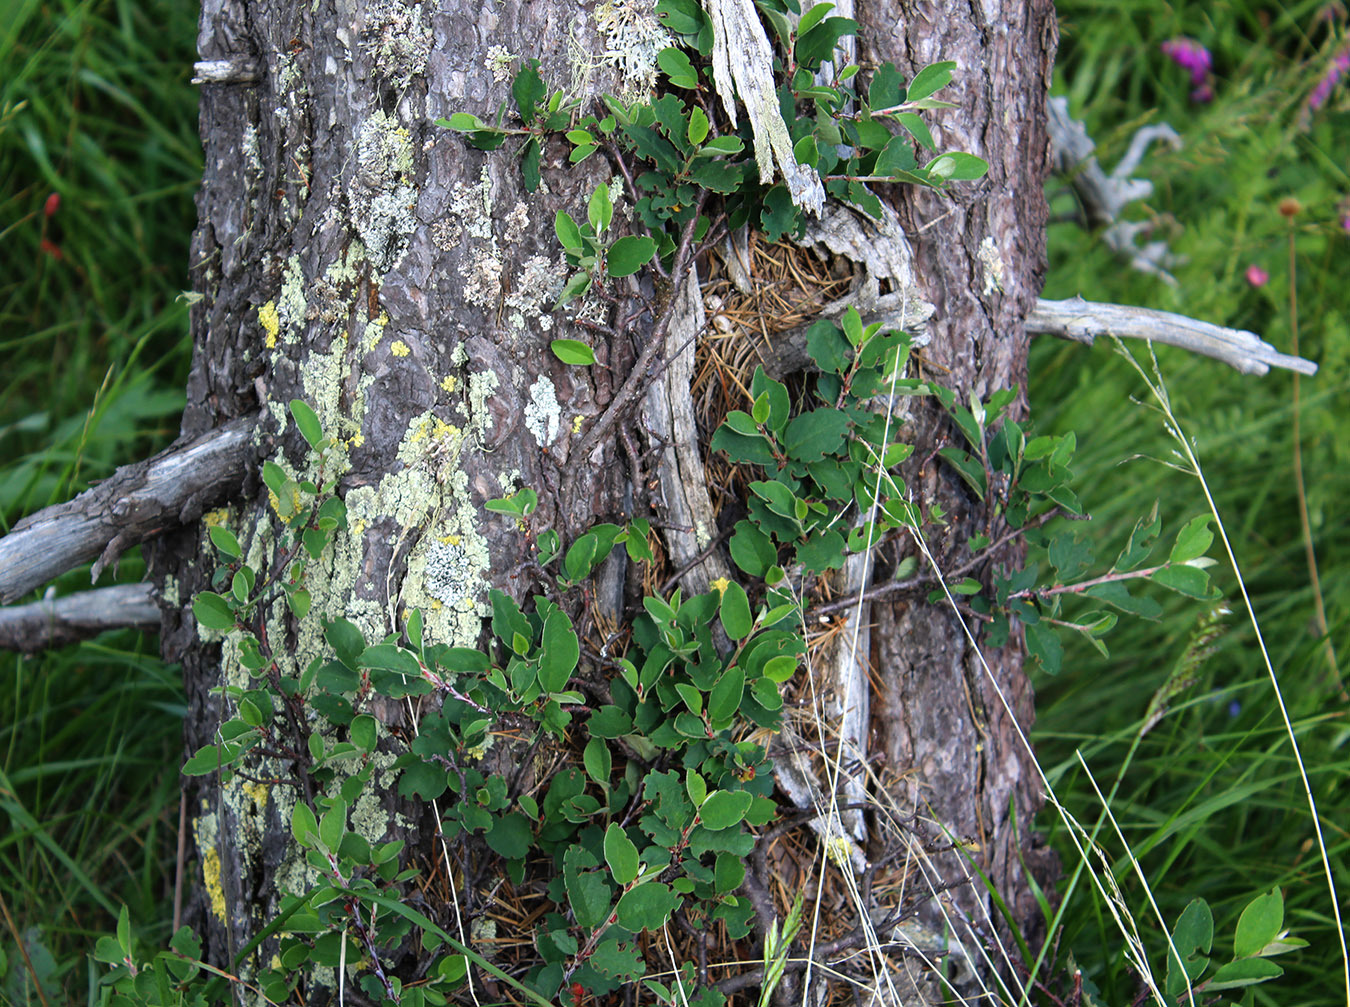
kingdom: Plantae
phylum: Tracheophyta
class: Magnoliopsida
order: Rosales
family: Rosaceae
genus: Cotoneaster
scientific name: Cotoneaster integerrimus
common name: Wild cotoneaster
